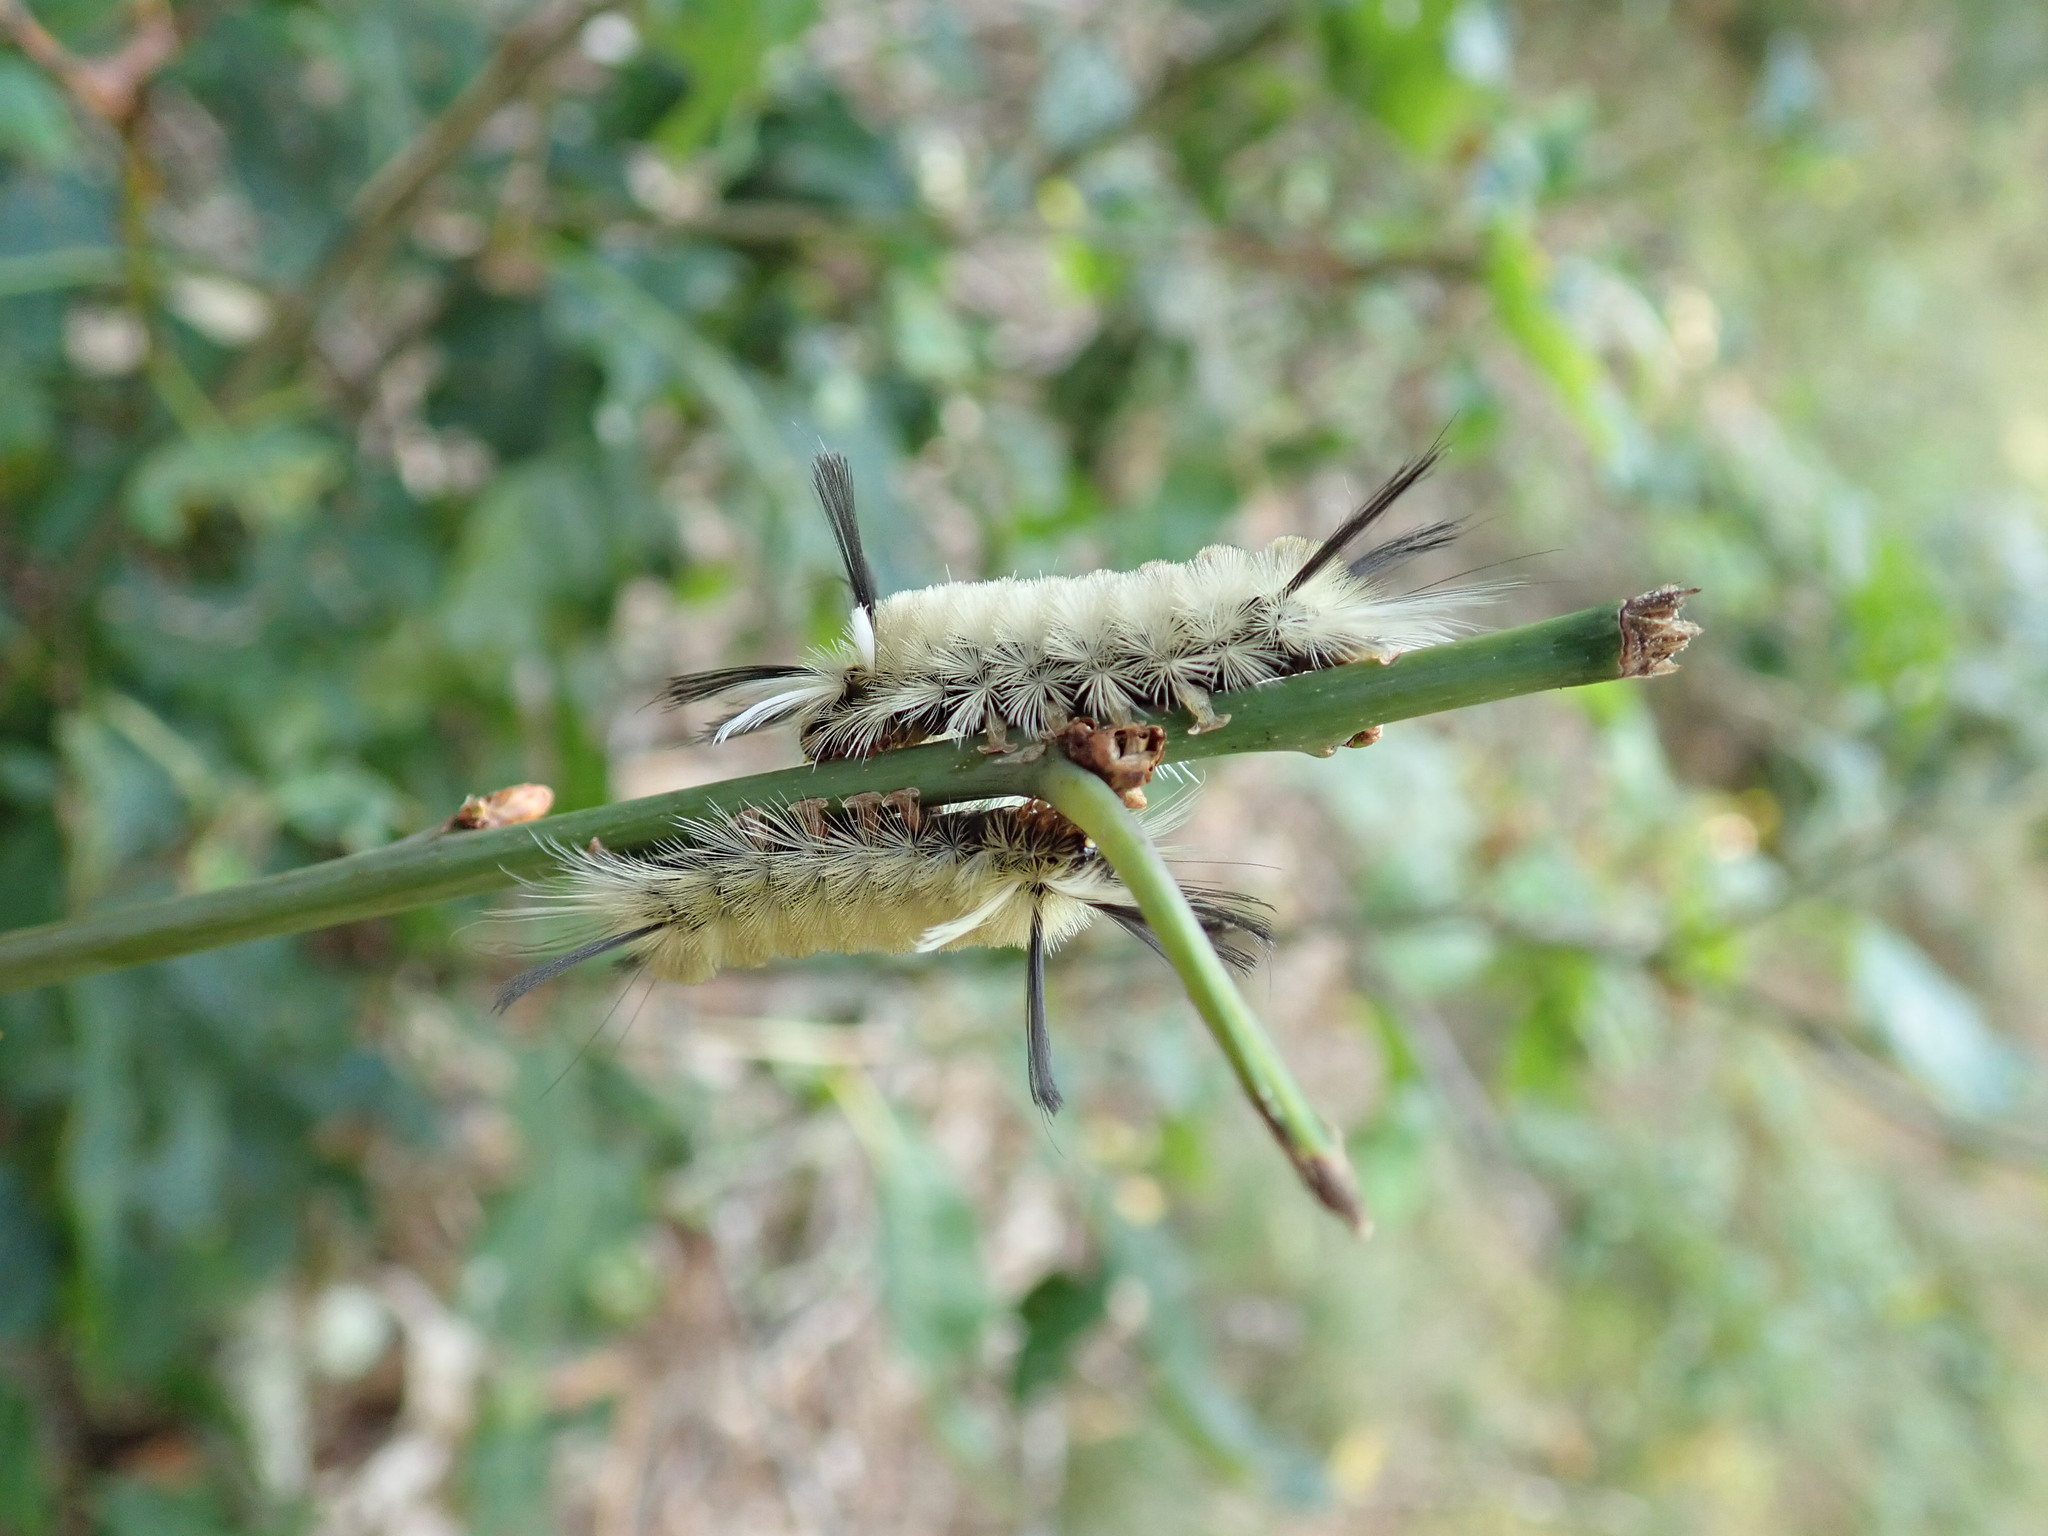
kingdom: Animalia
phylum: Arthropoda
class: Insecta
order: Lepidoptera
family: Erebidae
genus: Halysidota
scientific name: Halysidota tessellaris
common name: Banded tussock moth
